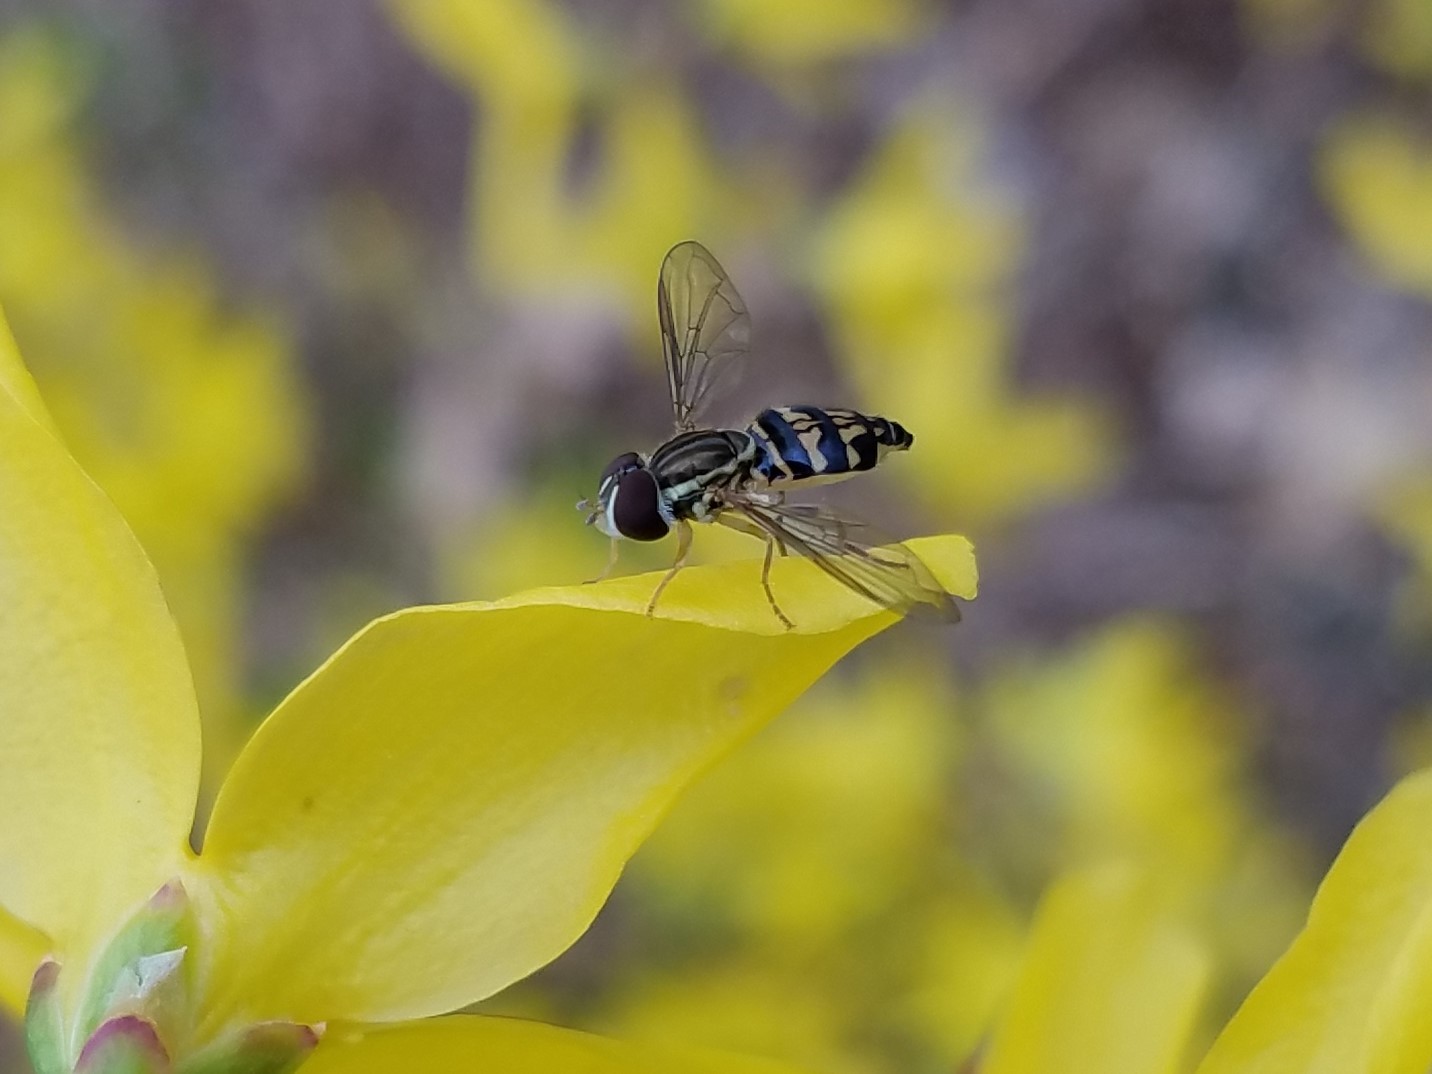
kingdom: Animalia
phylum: Arthropoda
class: Insecta
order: Diptera
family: Syrphidae
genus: Toxomerus
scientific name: Toxomerus geminatus
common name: Eastern calligrapher
